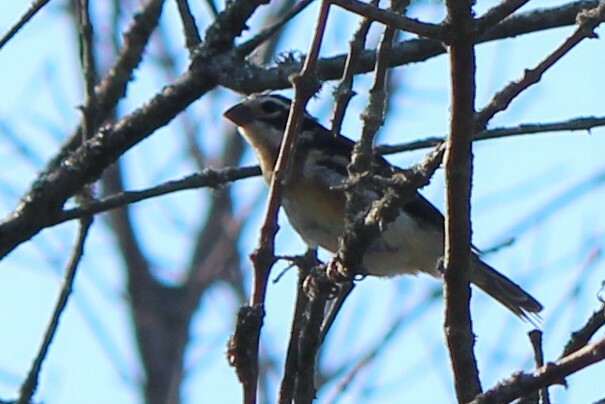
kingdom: Animalia
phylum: Chordata
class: Aves
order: Passeriformes
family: Cardinalidae
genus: Pheucticus
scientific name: Pheucticus ludovicianus
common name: Rose-breasted grosbeak
